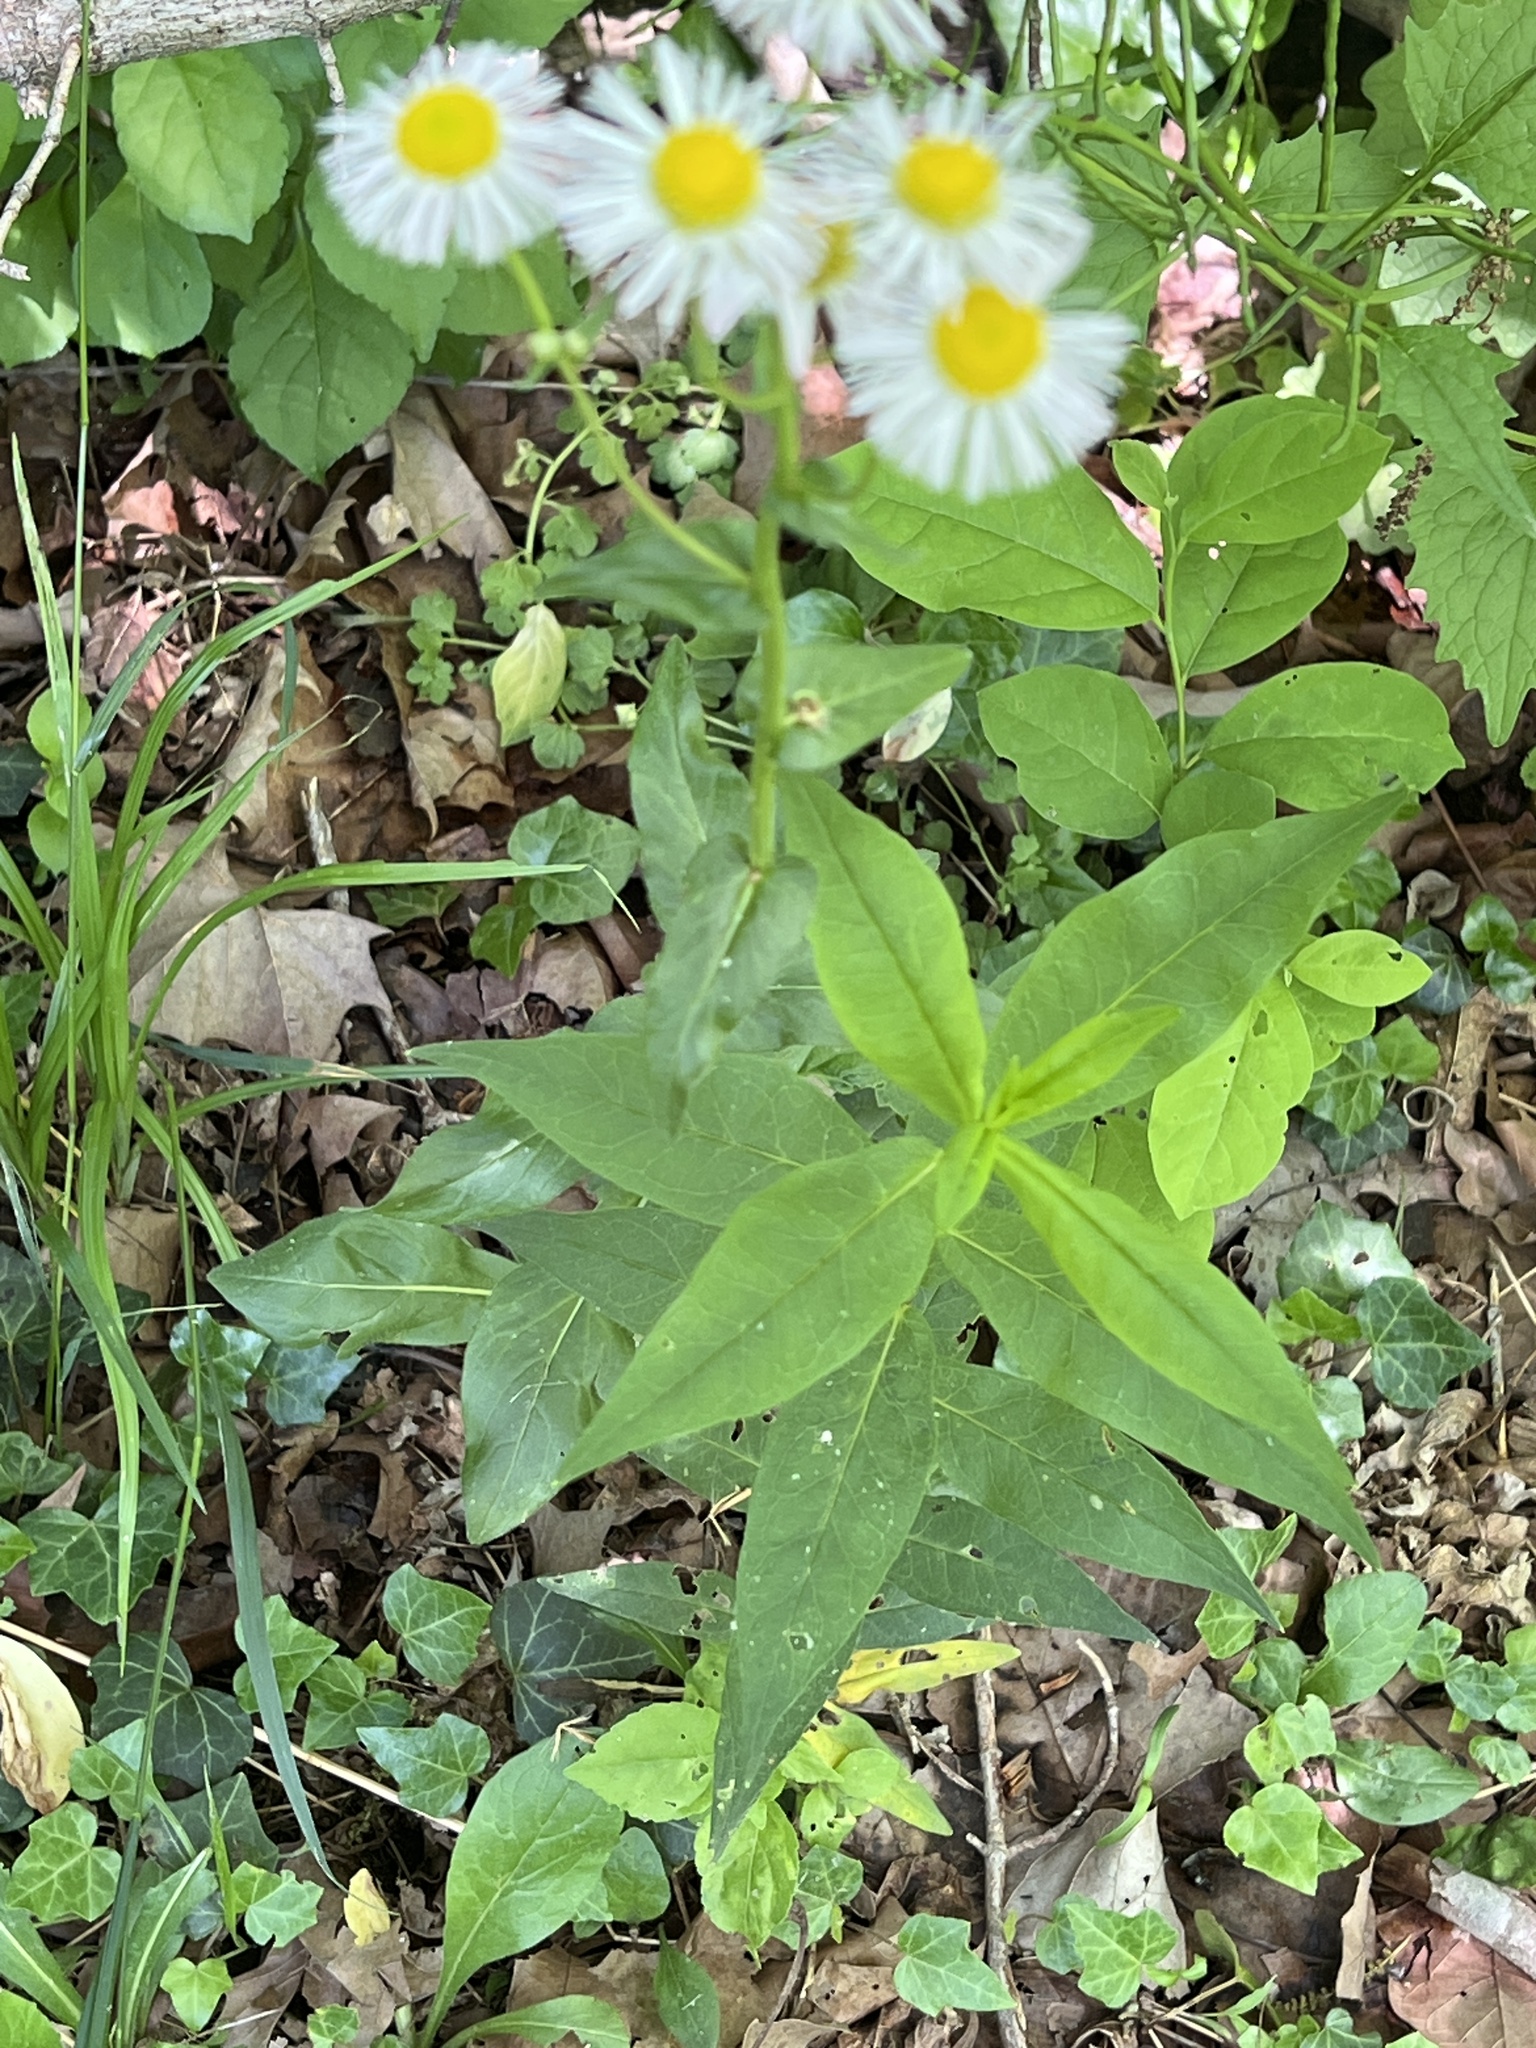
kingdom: Plantae
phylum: Tracheophyta
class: Magnoliopsida
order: Asterales
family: Asteraceae
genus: Erigeron
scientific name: Erigeron philadelphicus
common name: Robin's-plantain
